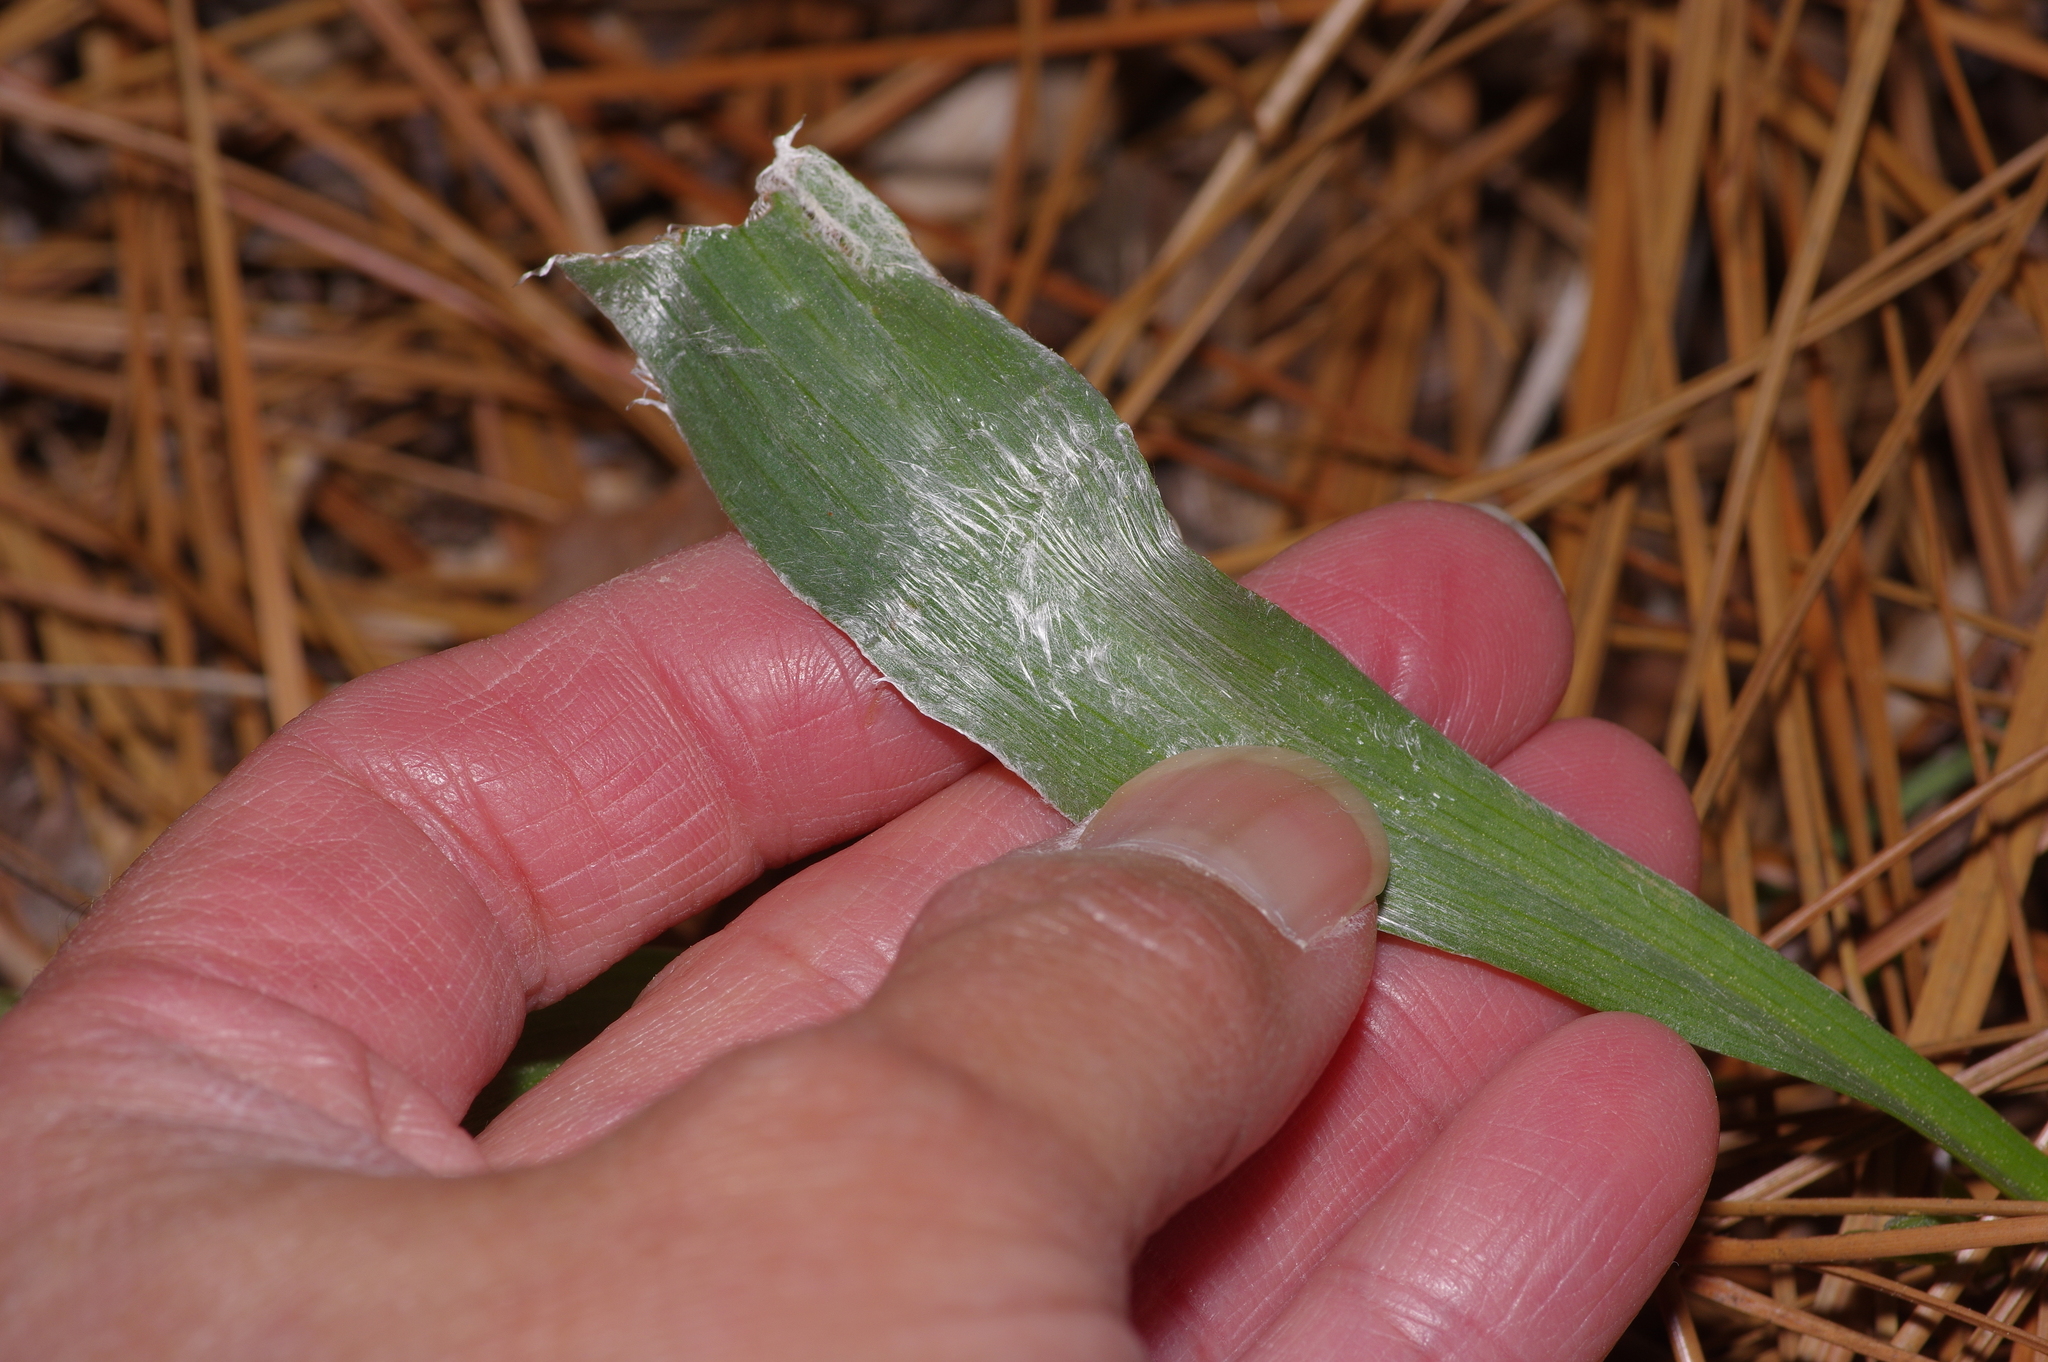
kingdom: Plantae
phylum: Tracheophyta
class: Magnoliopsida
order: Asterales
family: Asteraceae
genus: Pityopsis
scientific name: Pityopsis graminifolia
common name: Grass-leaf golden-aster
